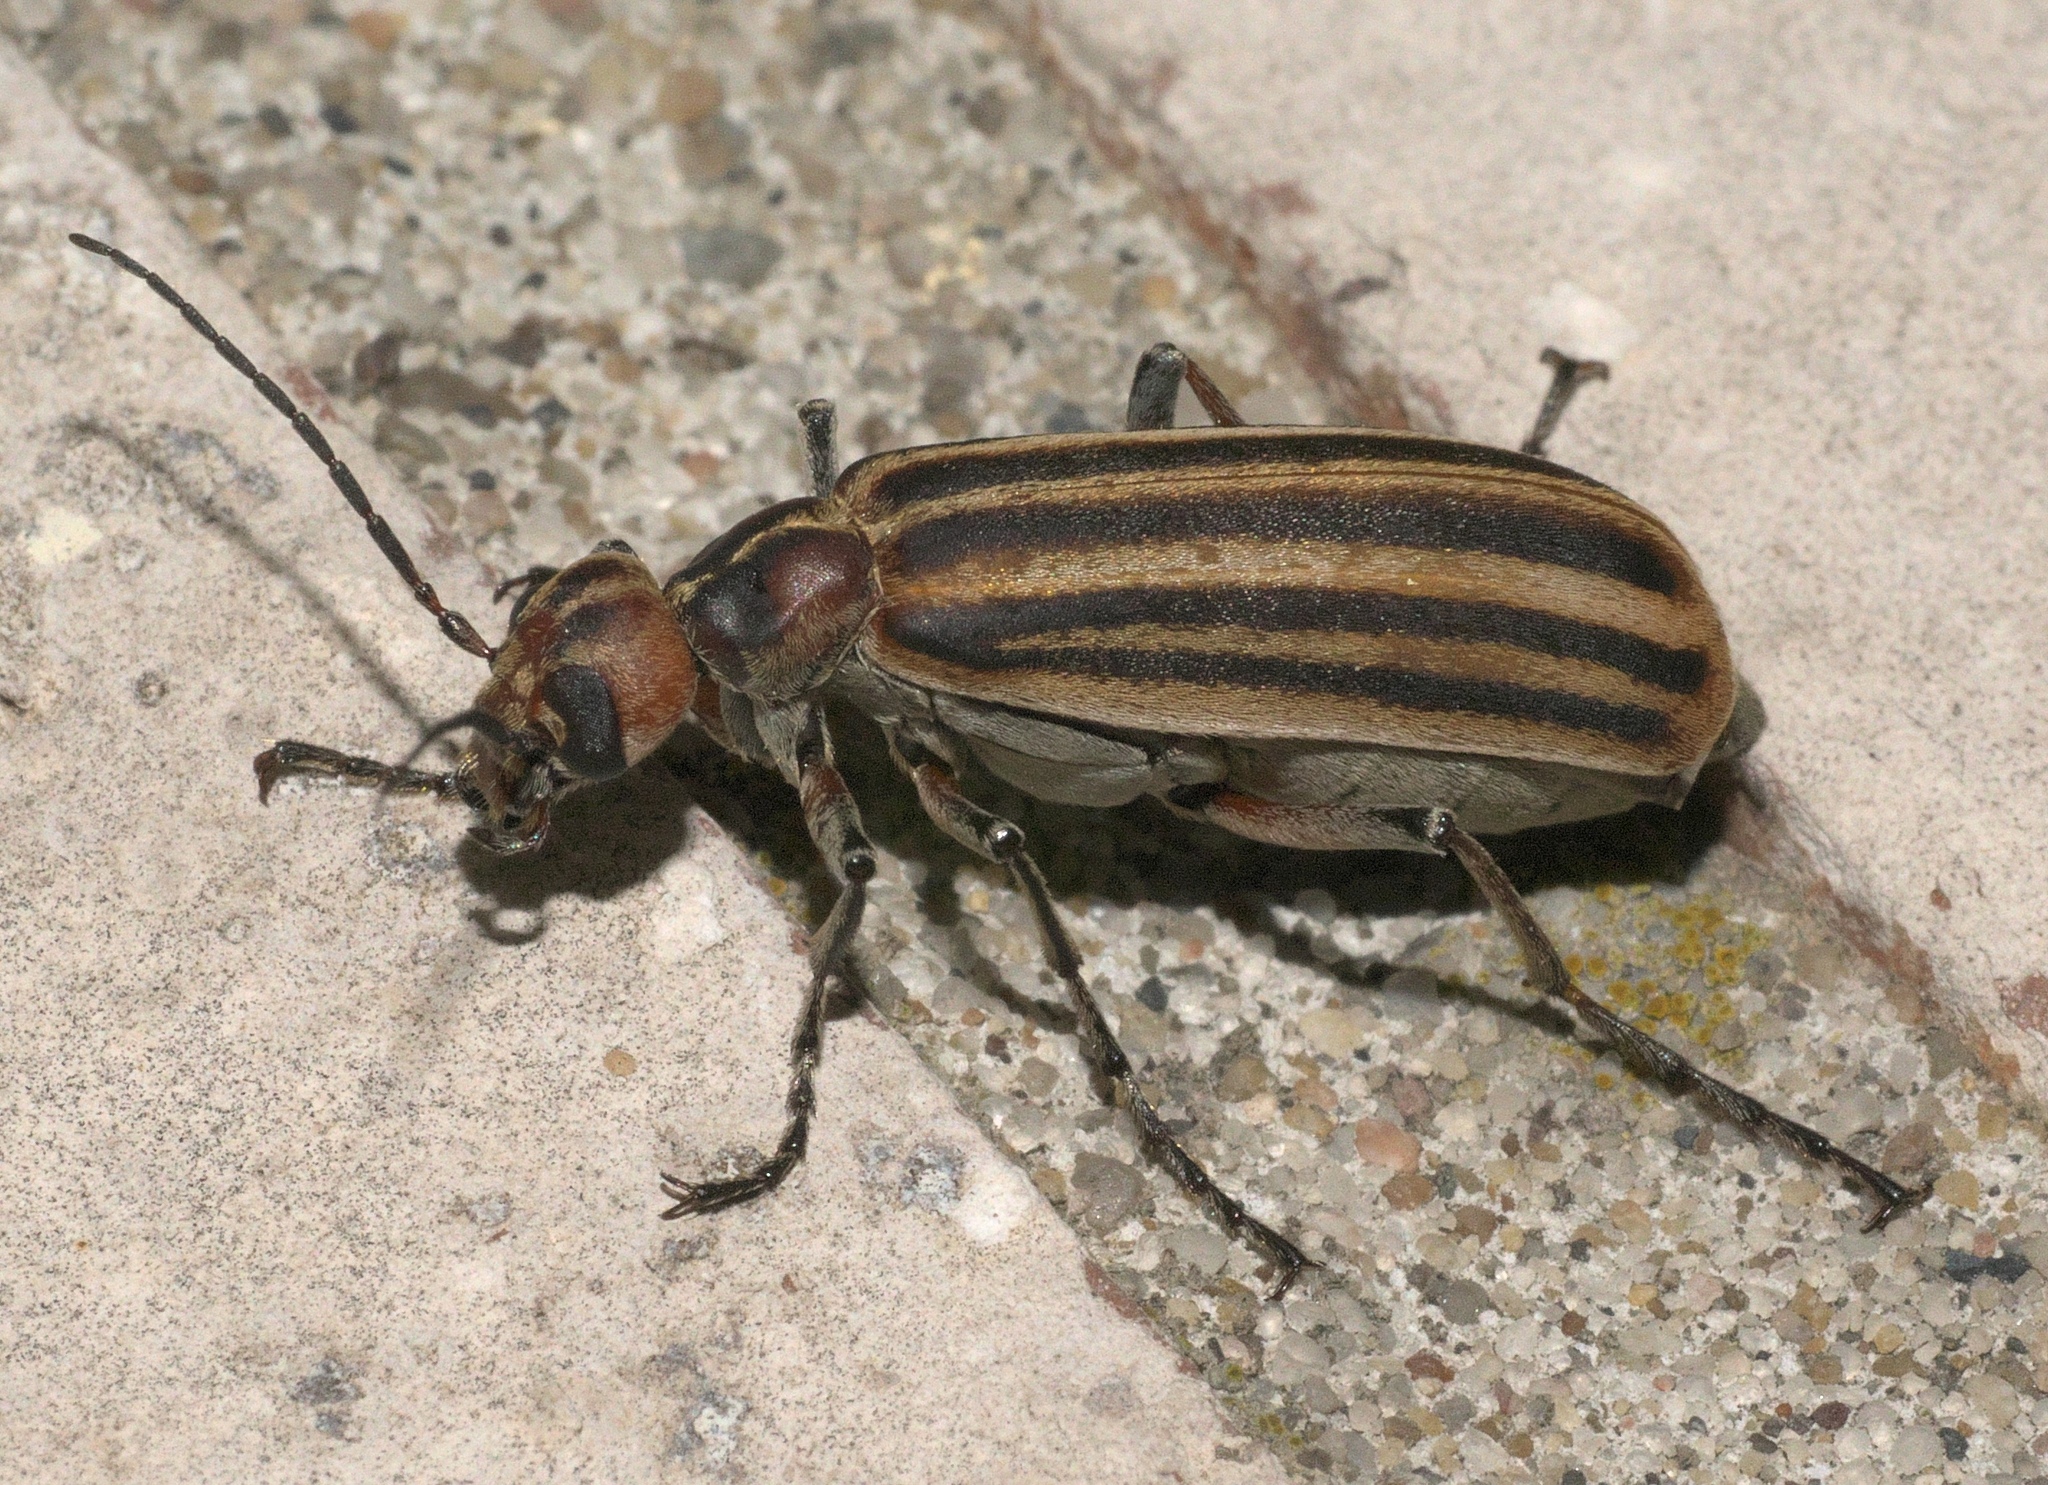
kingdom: Animalia
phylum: Arthropoda
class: Insecta
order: Coleoptera
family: Meloidae
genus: Epicauta
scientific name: Epicauta vittata
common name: Old-fashioned potato beetle
